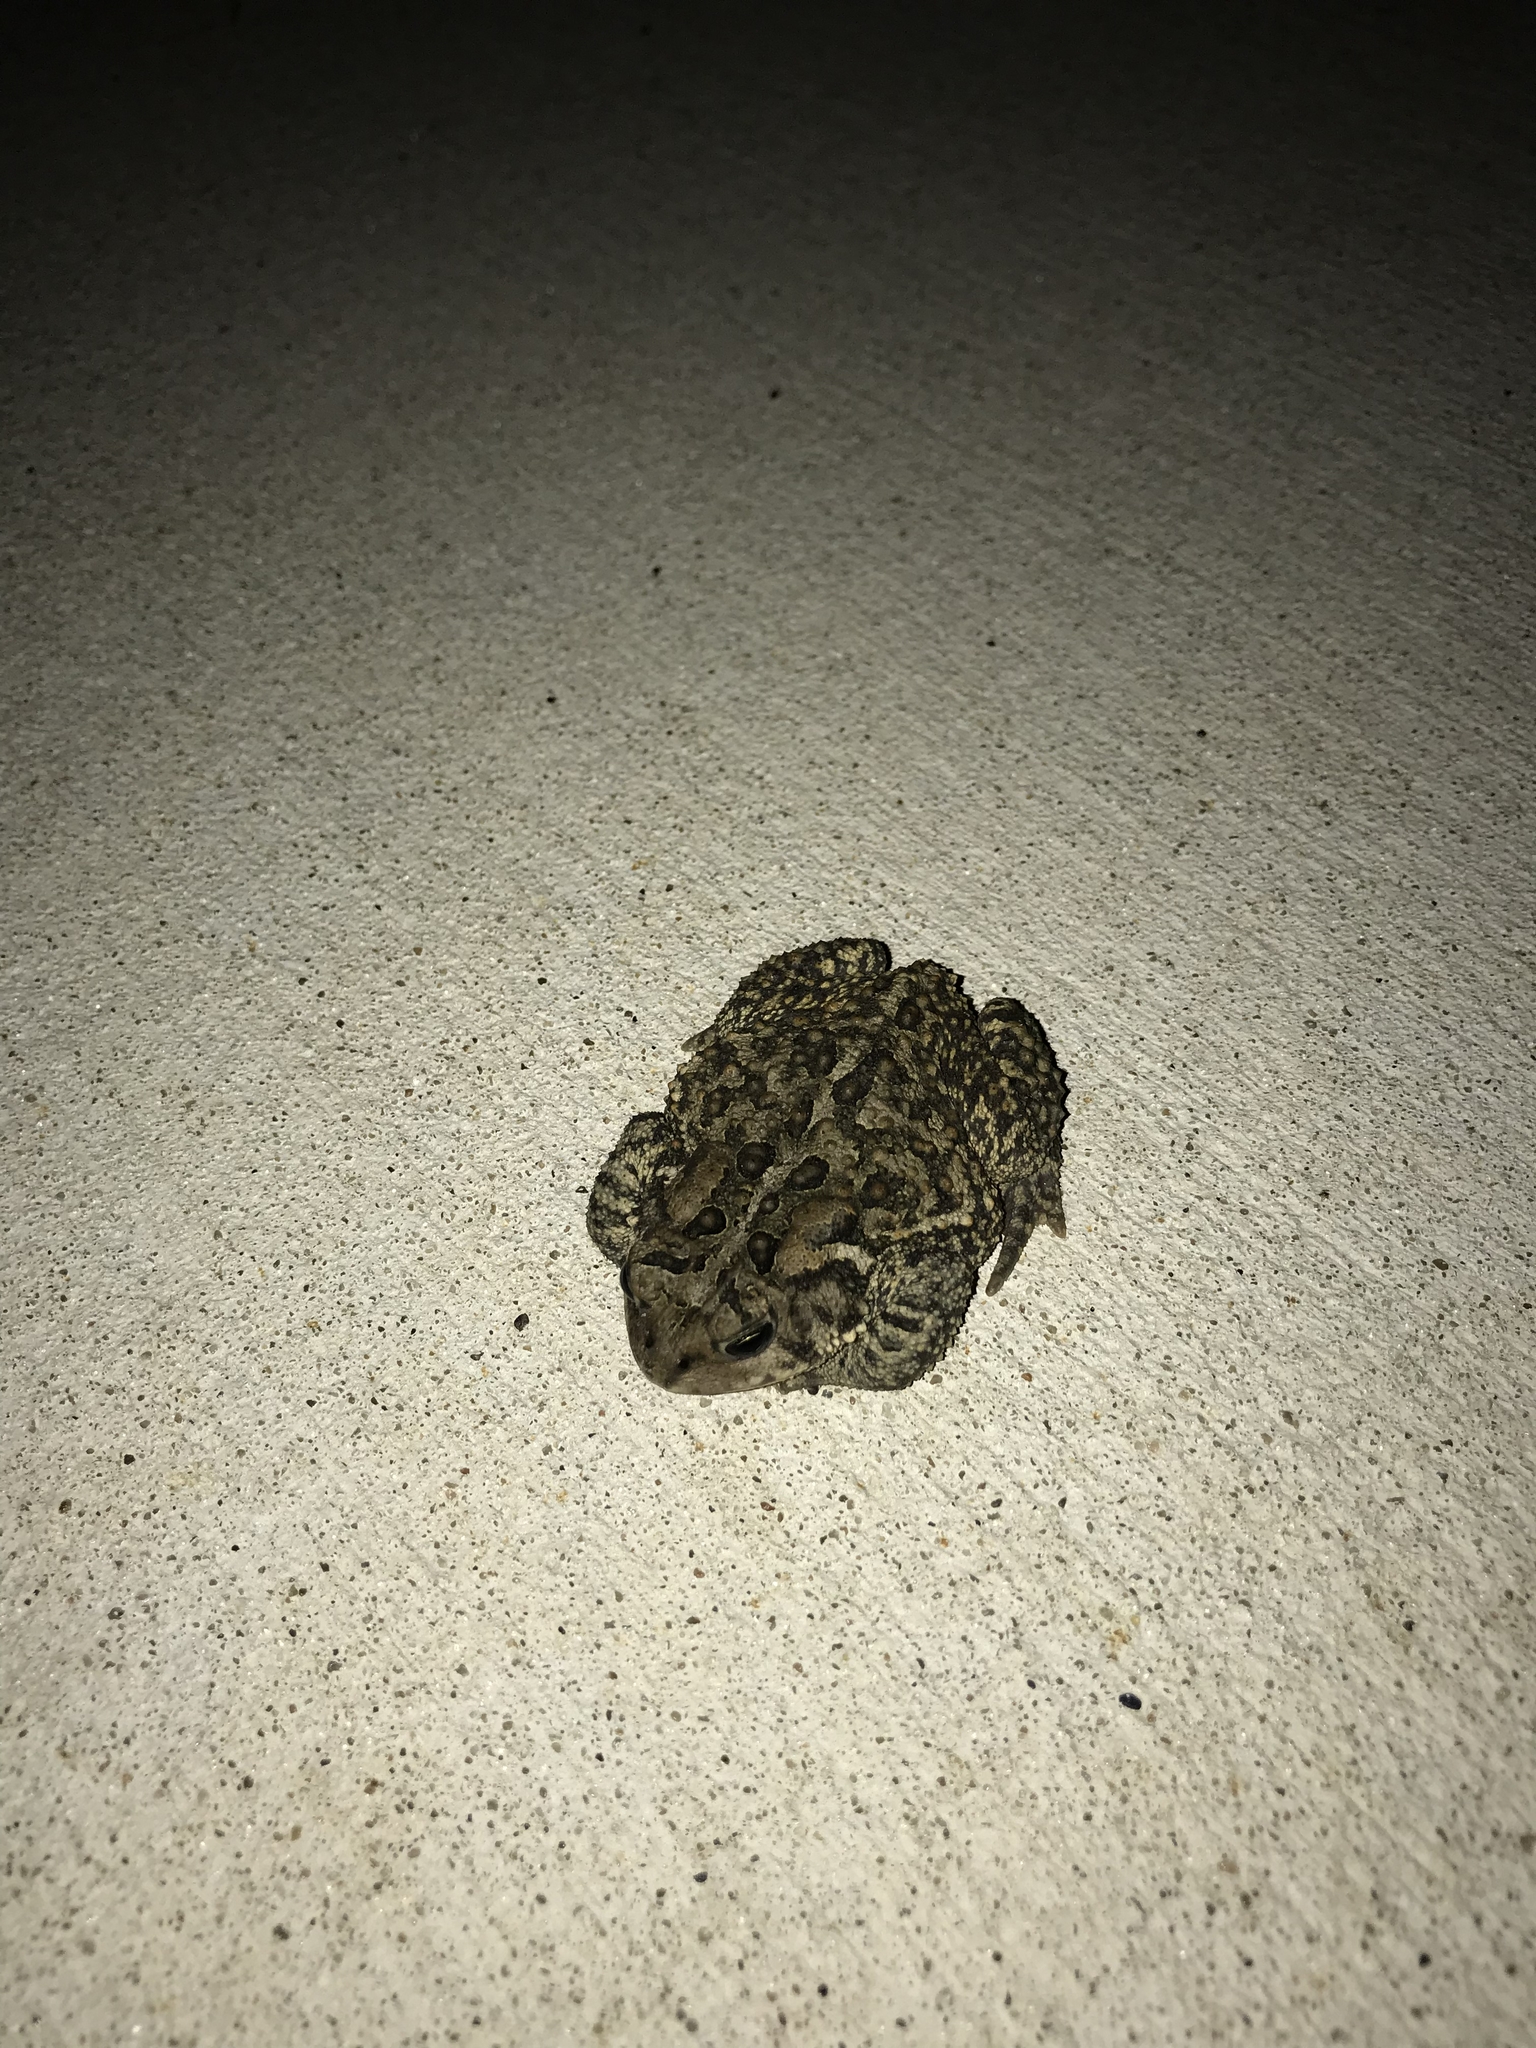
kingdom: Animalia
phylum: Chordata
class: Amphibia
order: Anura
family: Bufonidae
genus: Anaxyrus
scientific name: Anaxyrus americanus
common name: American toad
